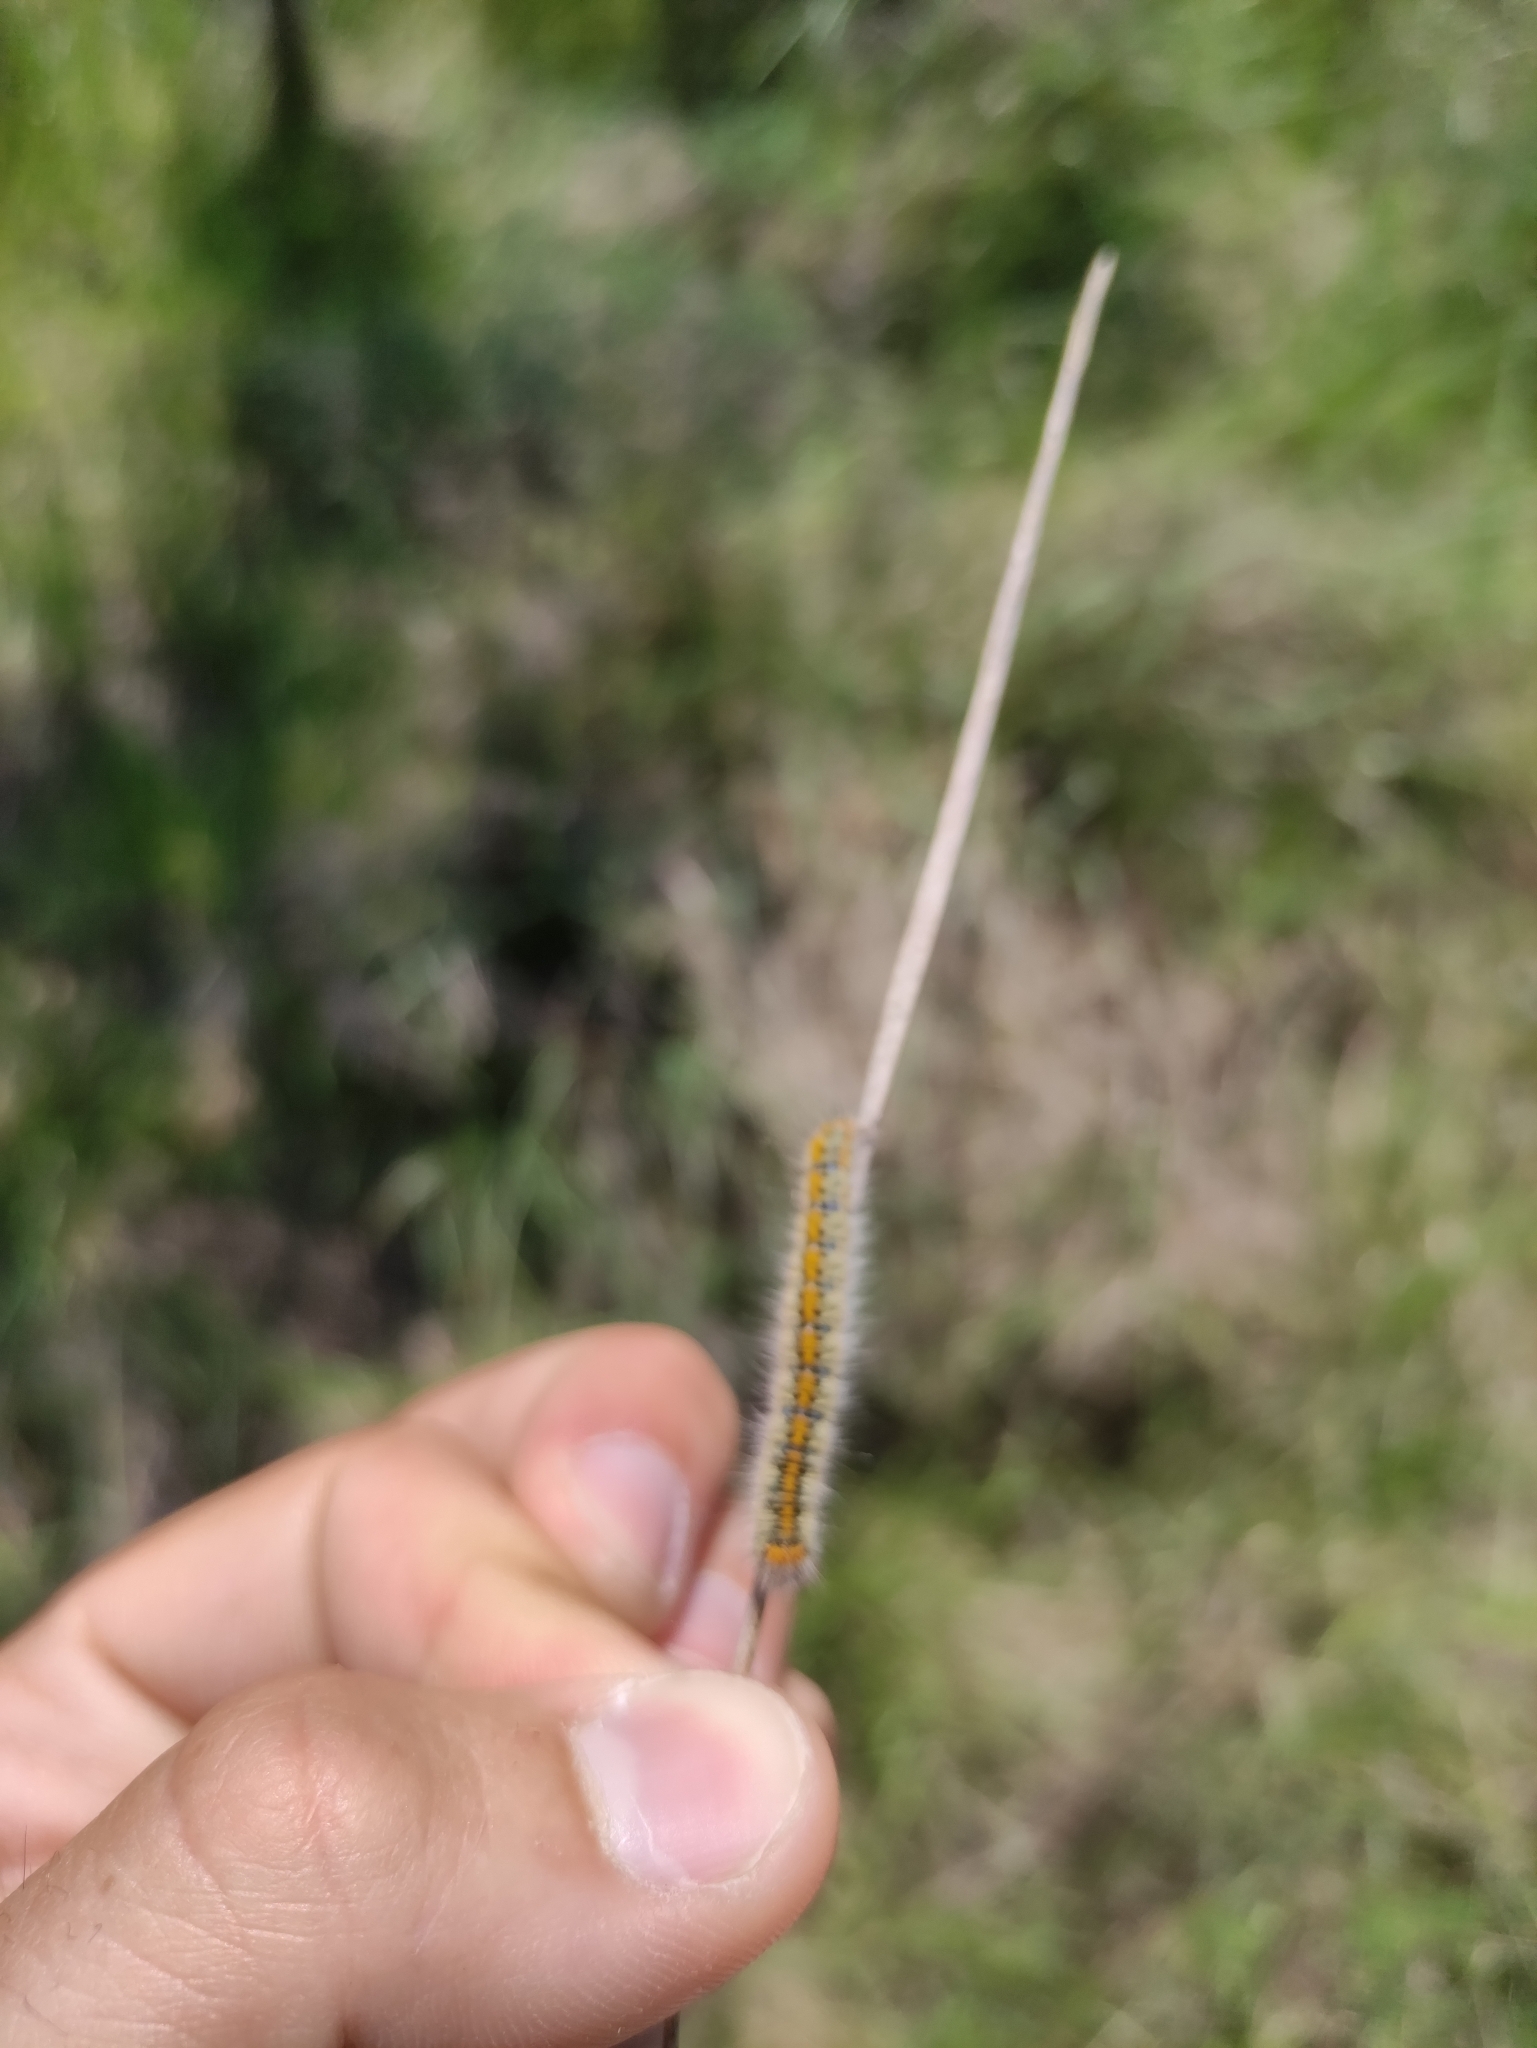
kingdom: Animalia
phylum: Arthropoda
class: Insecta
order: Lepidoptera
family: Lasiocampidae
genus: Lasiocampa
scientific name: Lasiocampa trifolii
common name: Grass eggar
